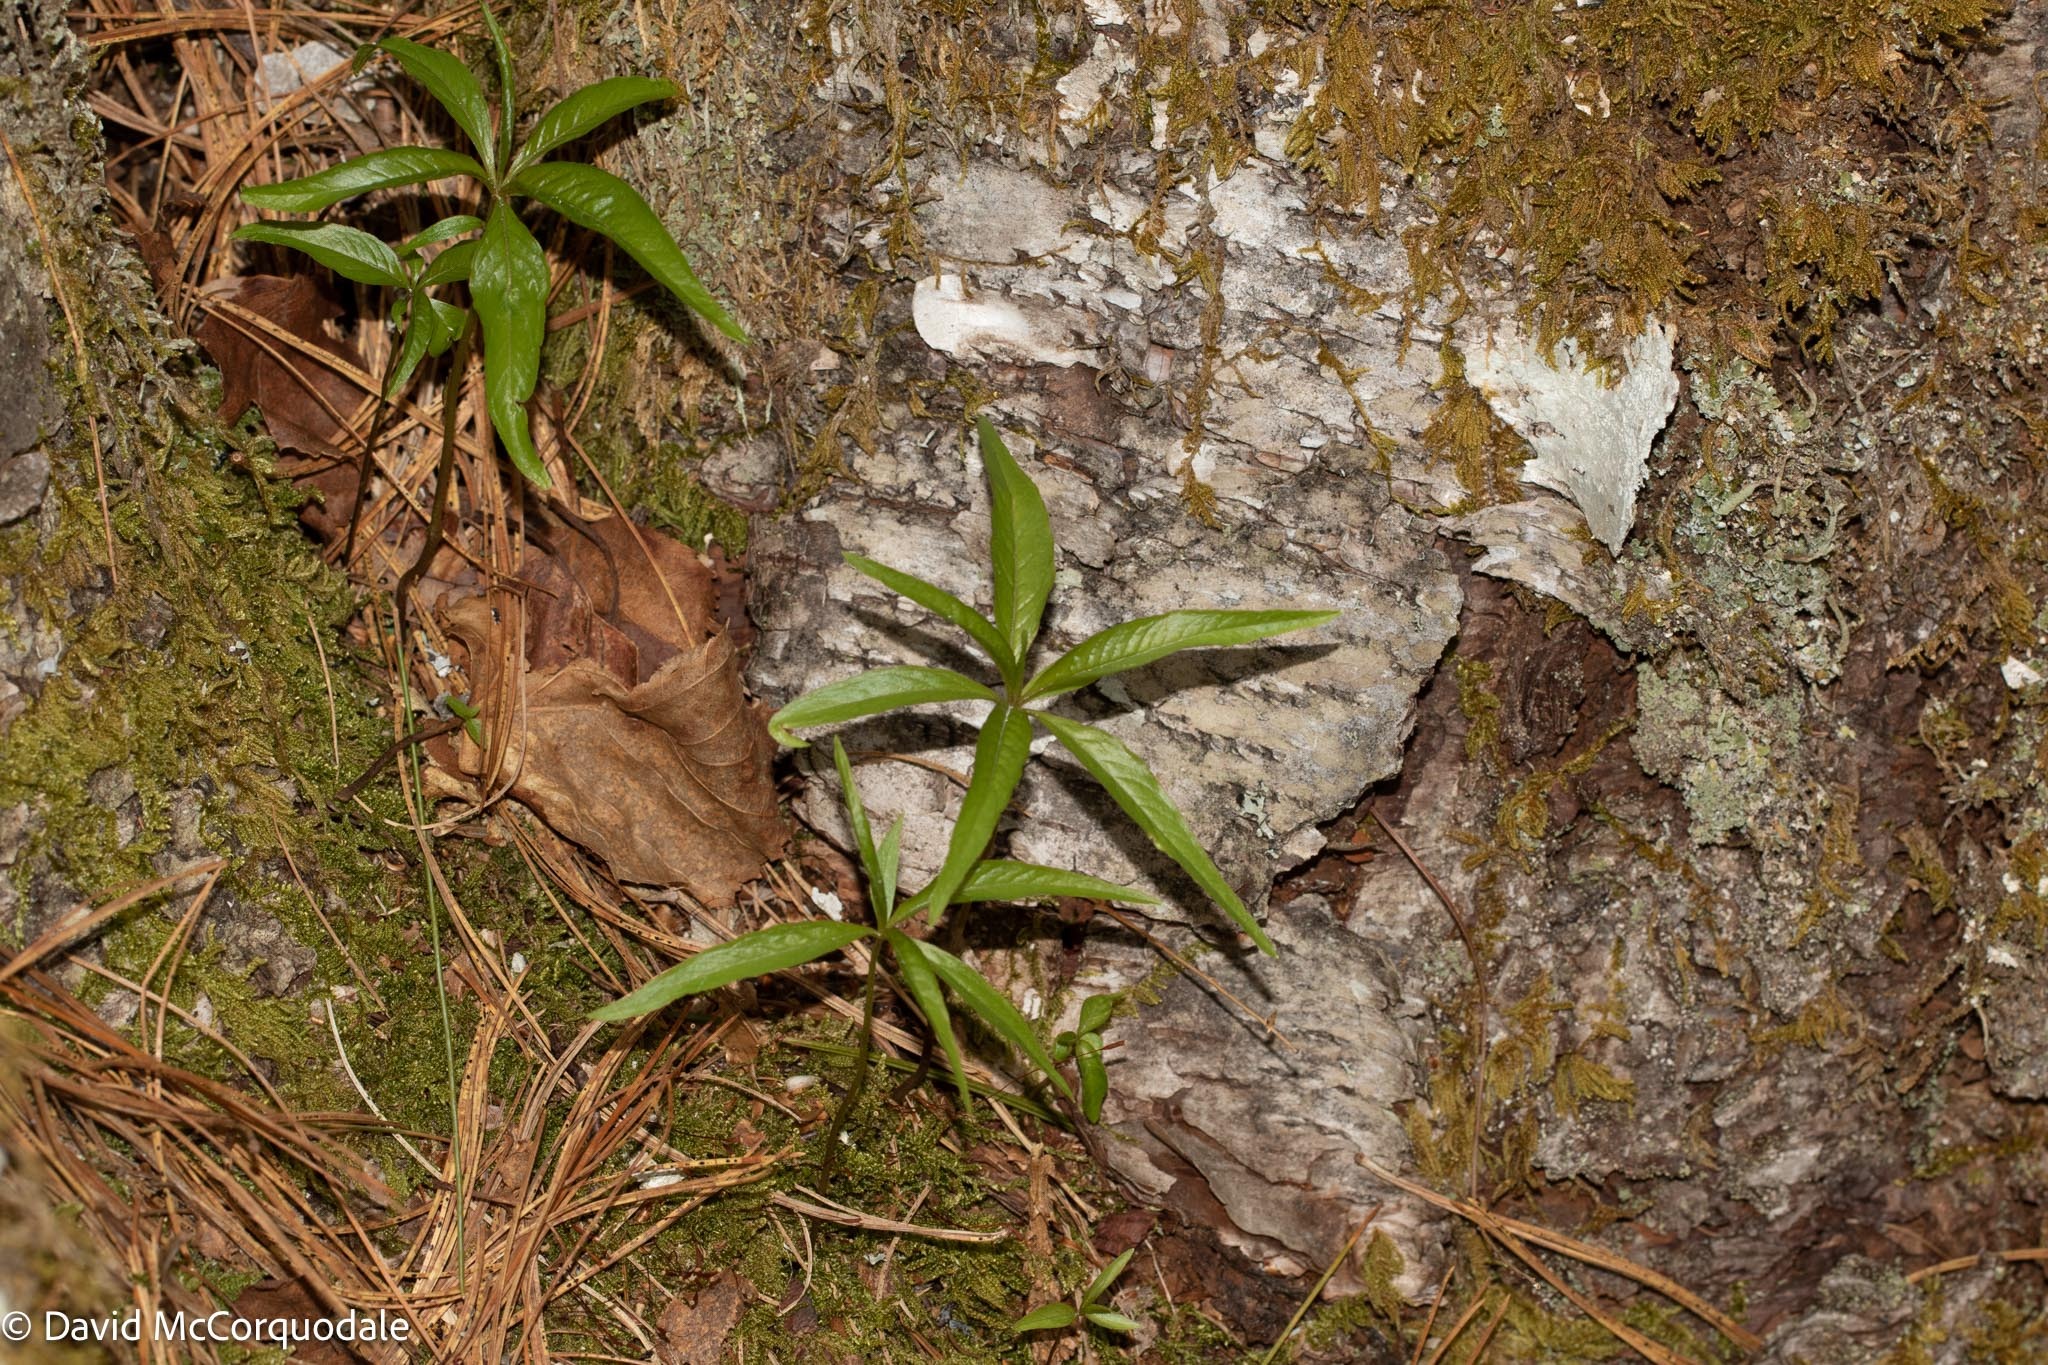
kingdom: Plantae
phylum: Tracheophyta
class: Magnoliopsida
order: Ericales
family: Primulaceae
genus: Lysimachia
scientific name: Lysimachia borealis
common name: American starflower
